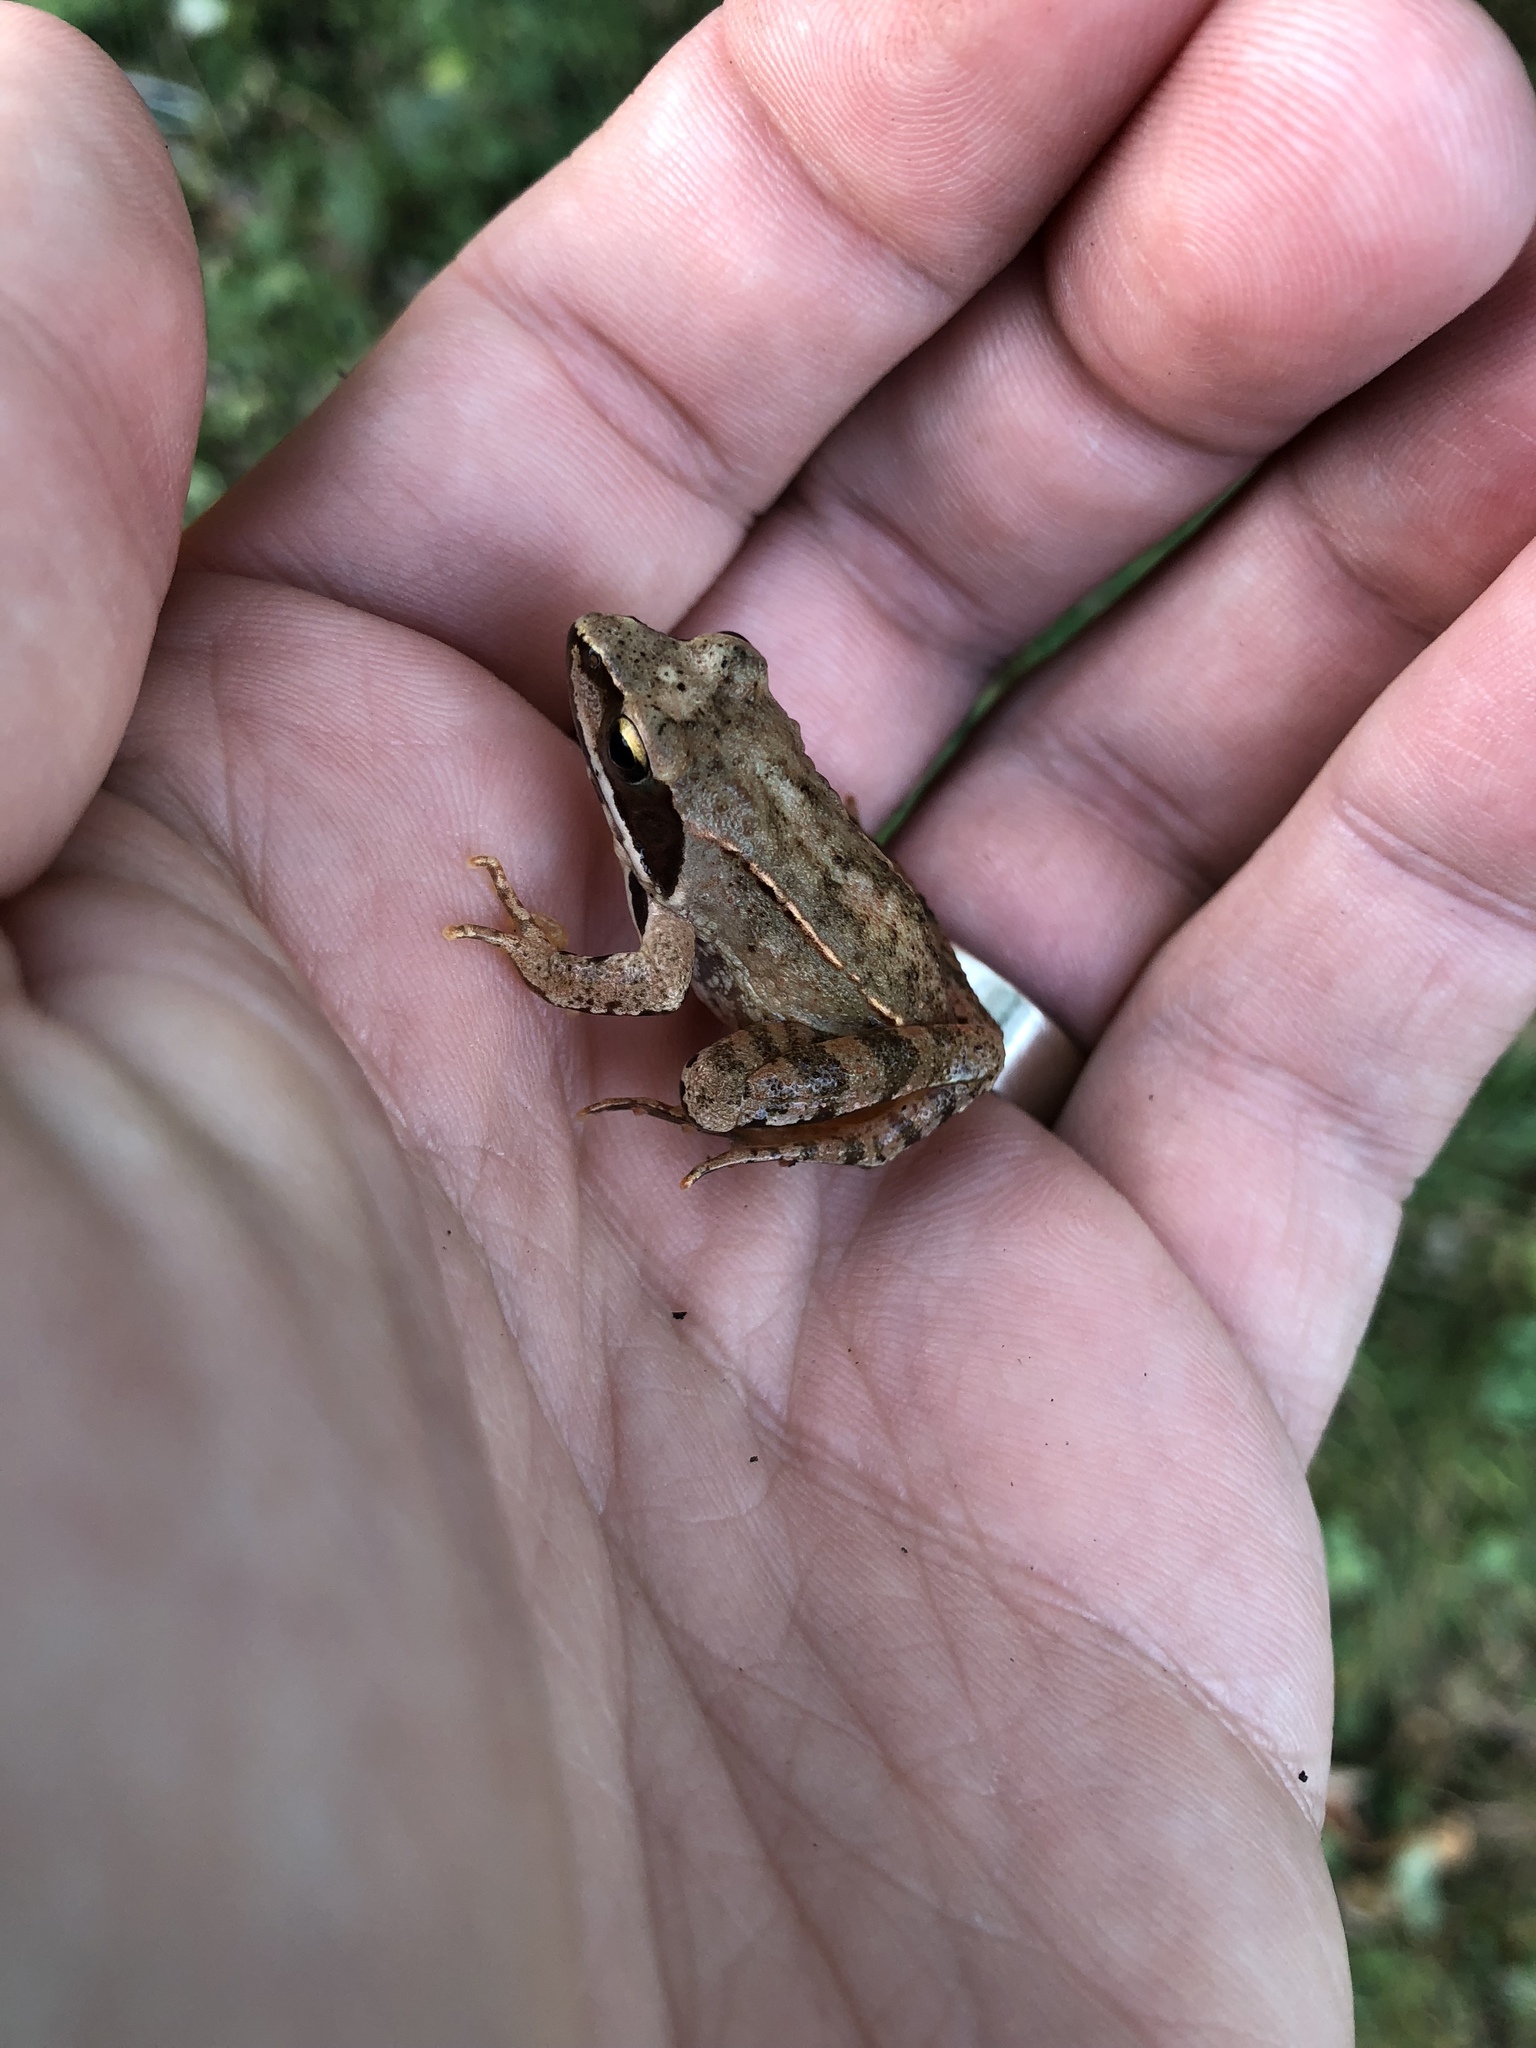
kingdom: Animalia
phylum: Chordata
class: Amphibia
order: Anura
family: Ranidae
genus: Rana
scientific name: Rana dalmatina
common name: Agile frog
